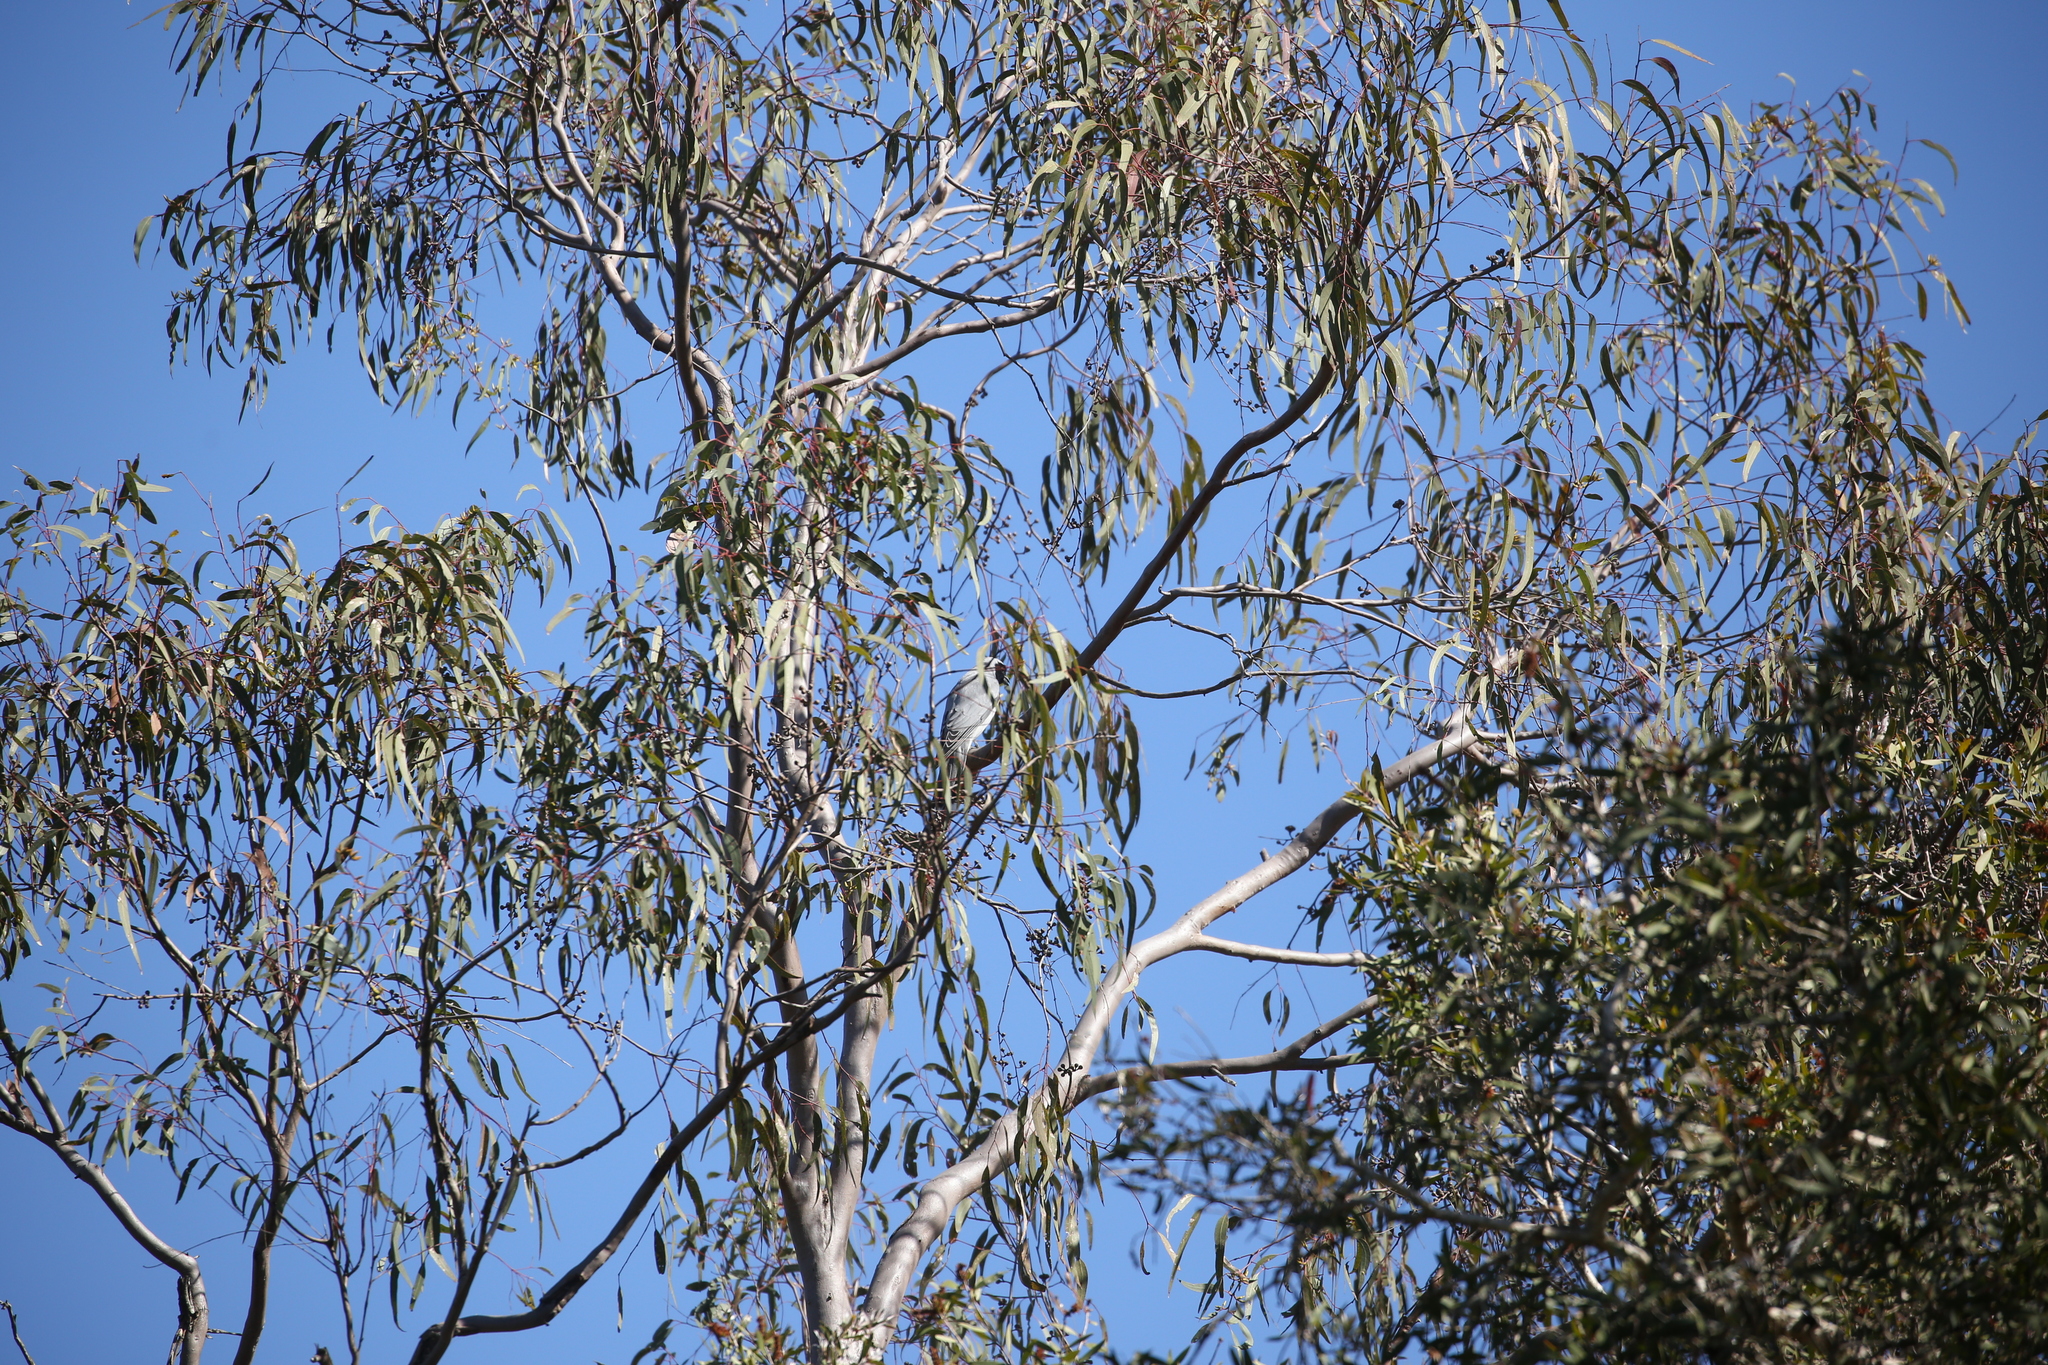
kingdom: Animalia
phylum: Chordata
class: Aves
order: Passeriformes
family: Campephagidae
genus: Coracina
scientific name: Coracina novaehollandiae
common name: Black-faced cuckooshrike
